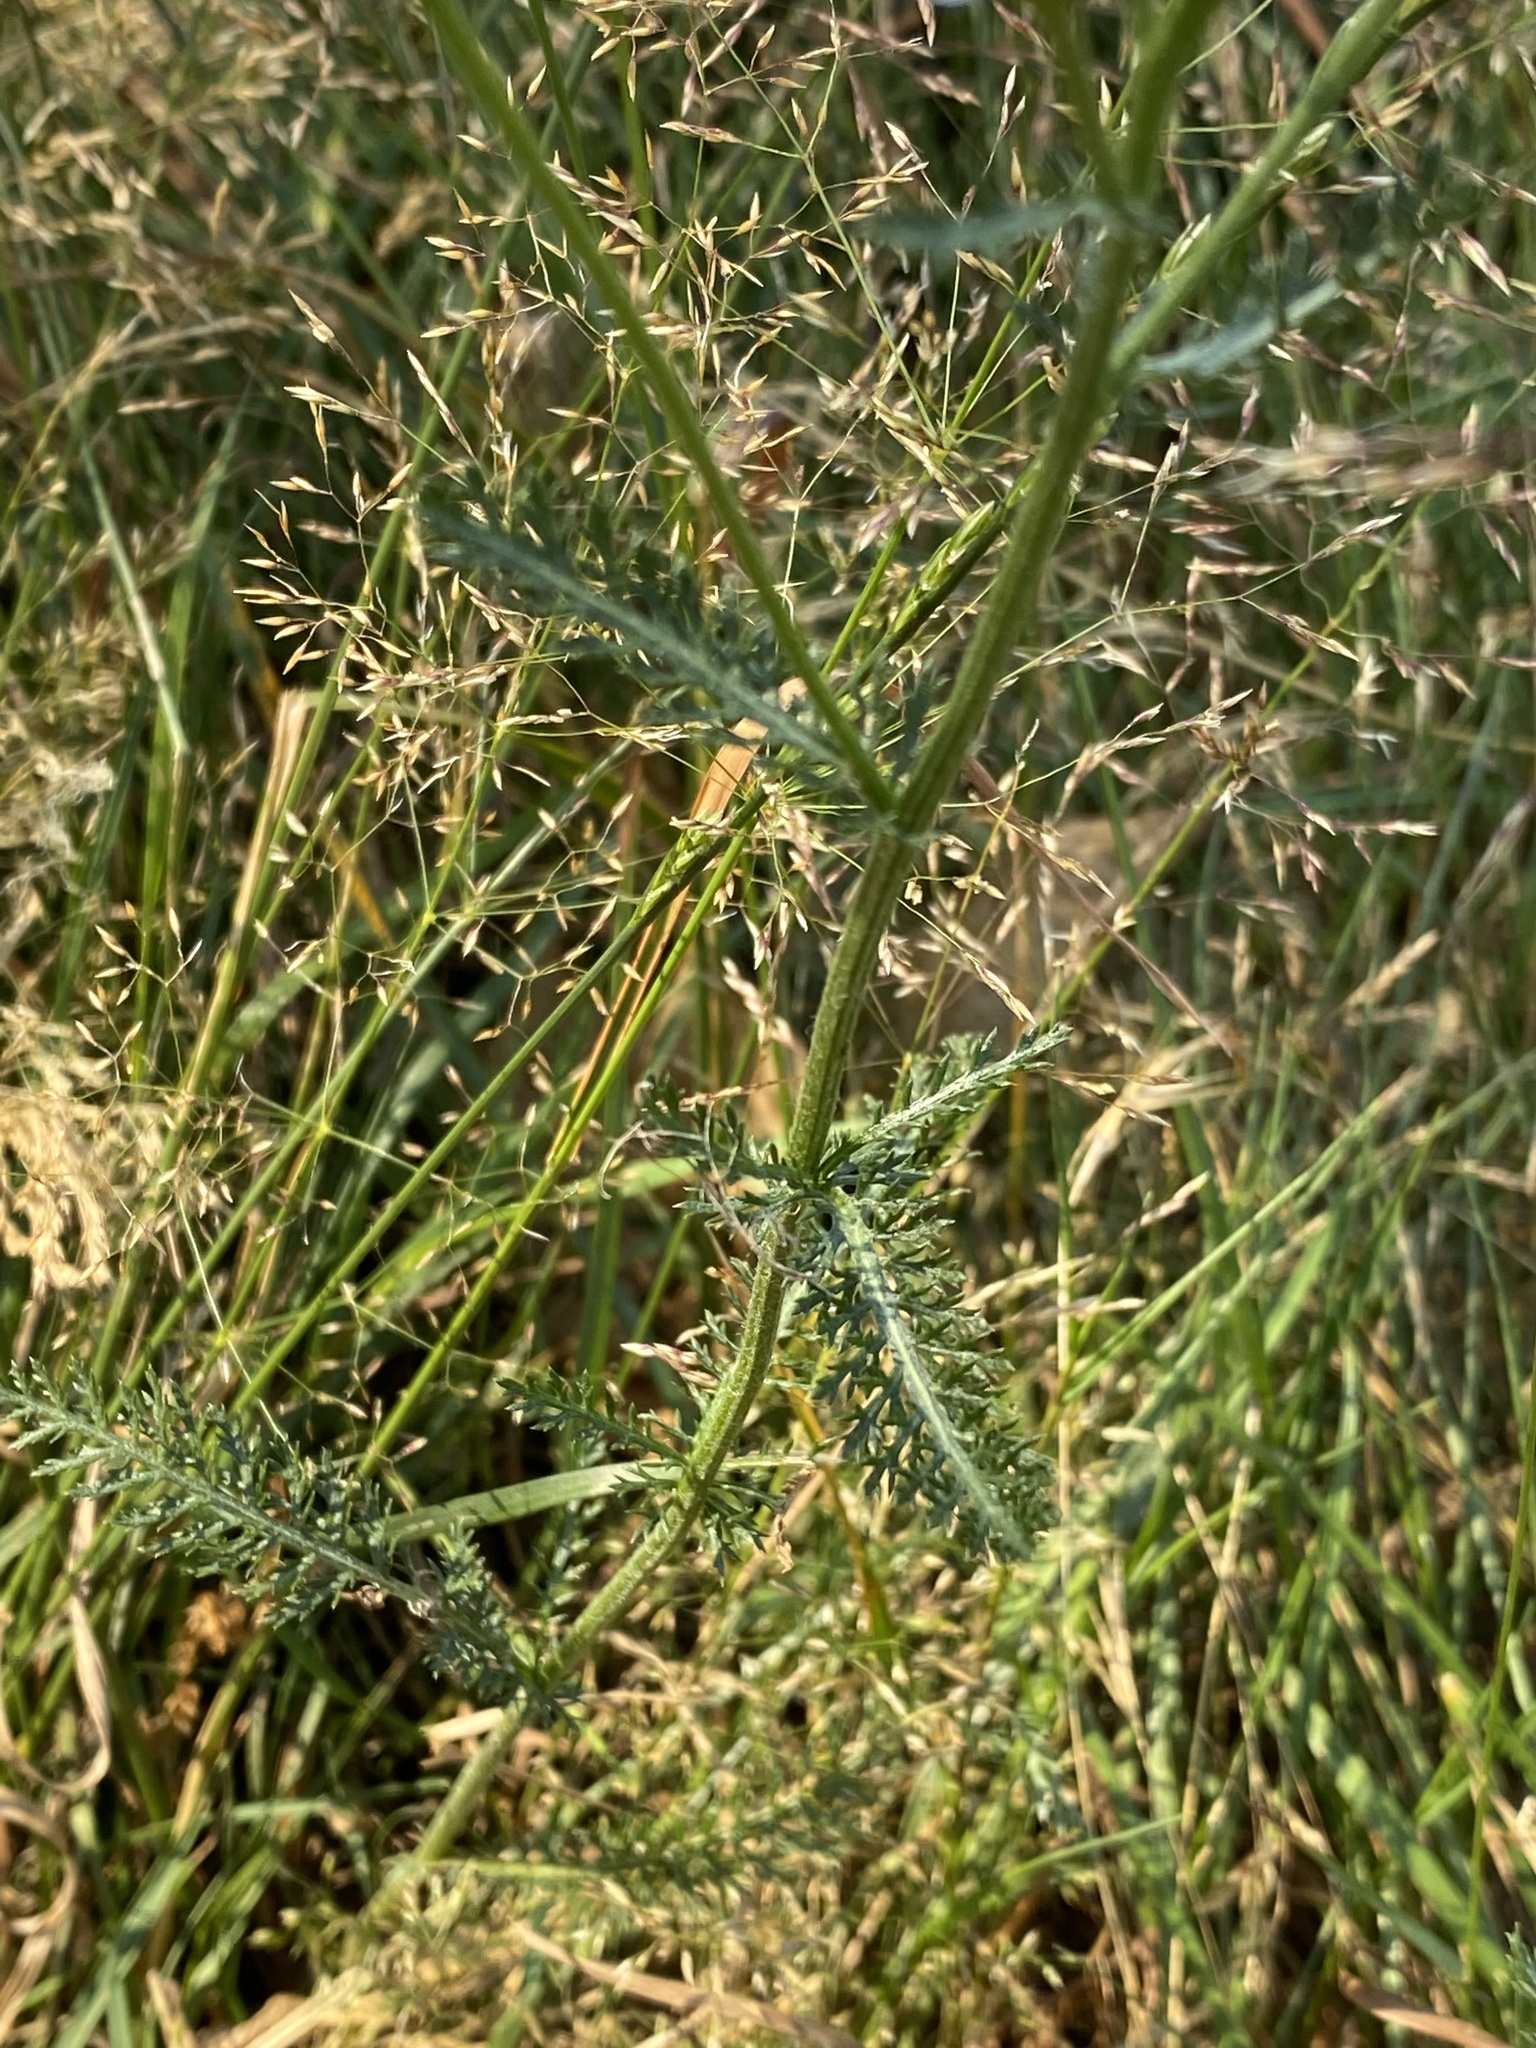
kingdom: Plantae
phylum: Tracheophyta
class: Magnoliopsida
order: Asterales
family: Asteraceae
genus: Achillea
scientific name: Achillea millefolium
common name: Yarrow
